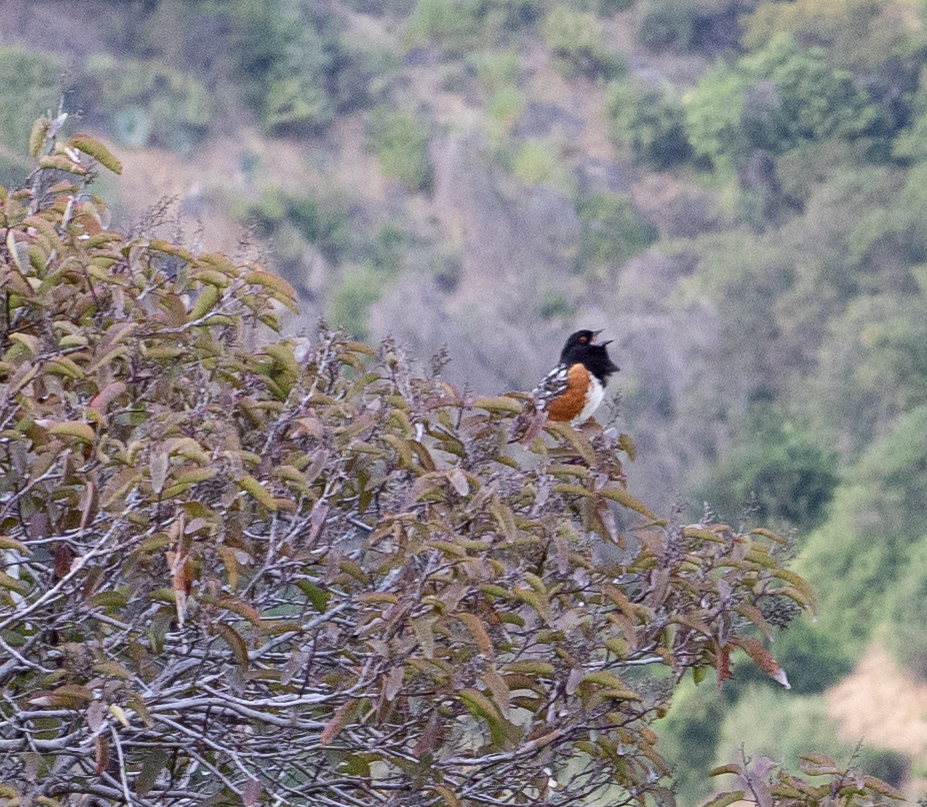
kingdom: Animalia
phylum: Chordata
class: Aves
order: Passeriformes
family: Passerellidae
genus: Pipilo
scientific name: Pipilo maculatus
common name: Spotted towhee
